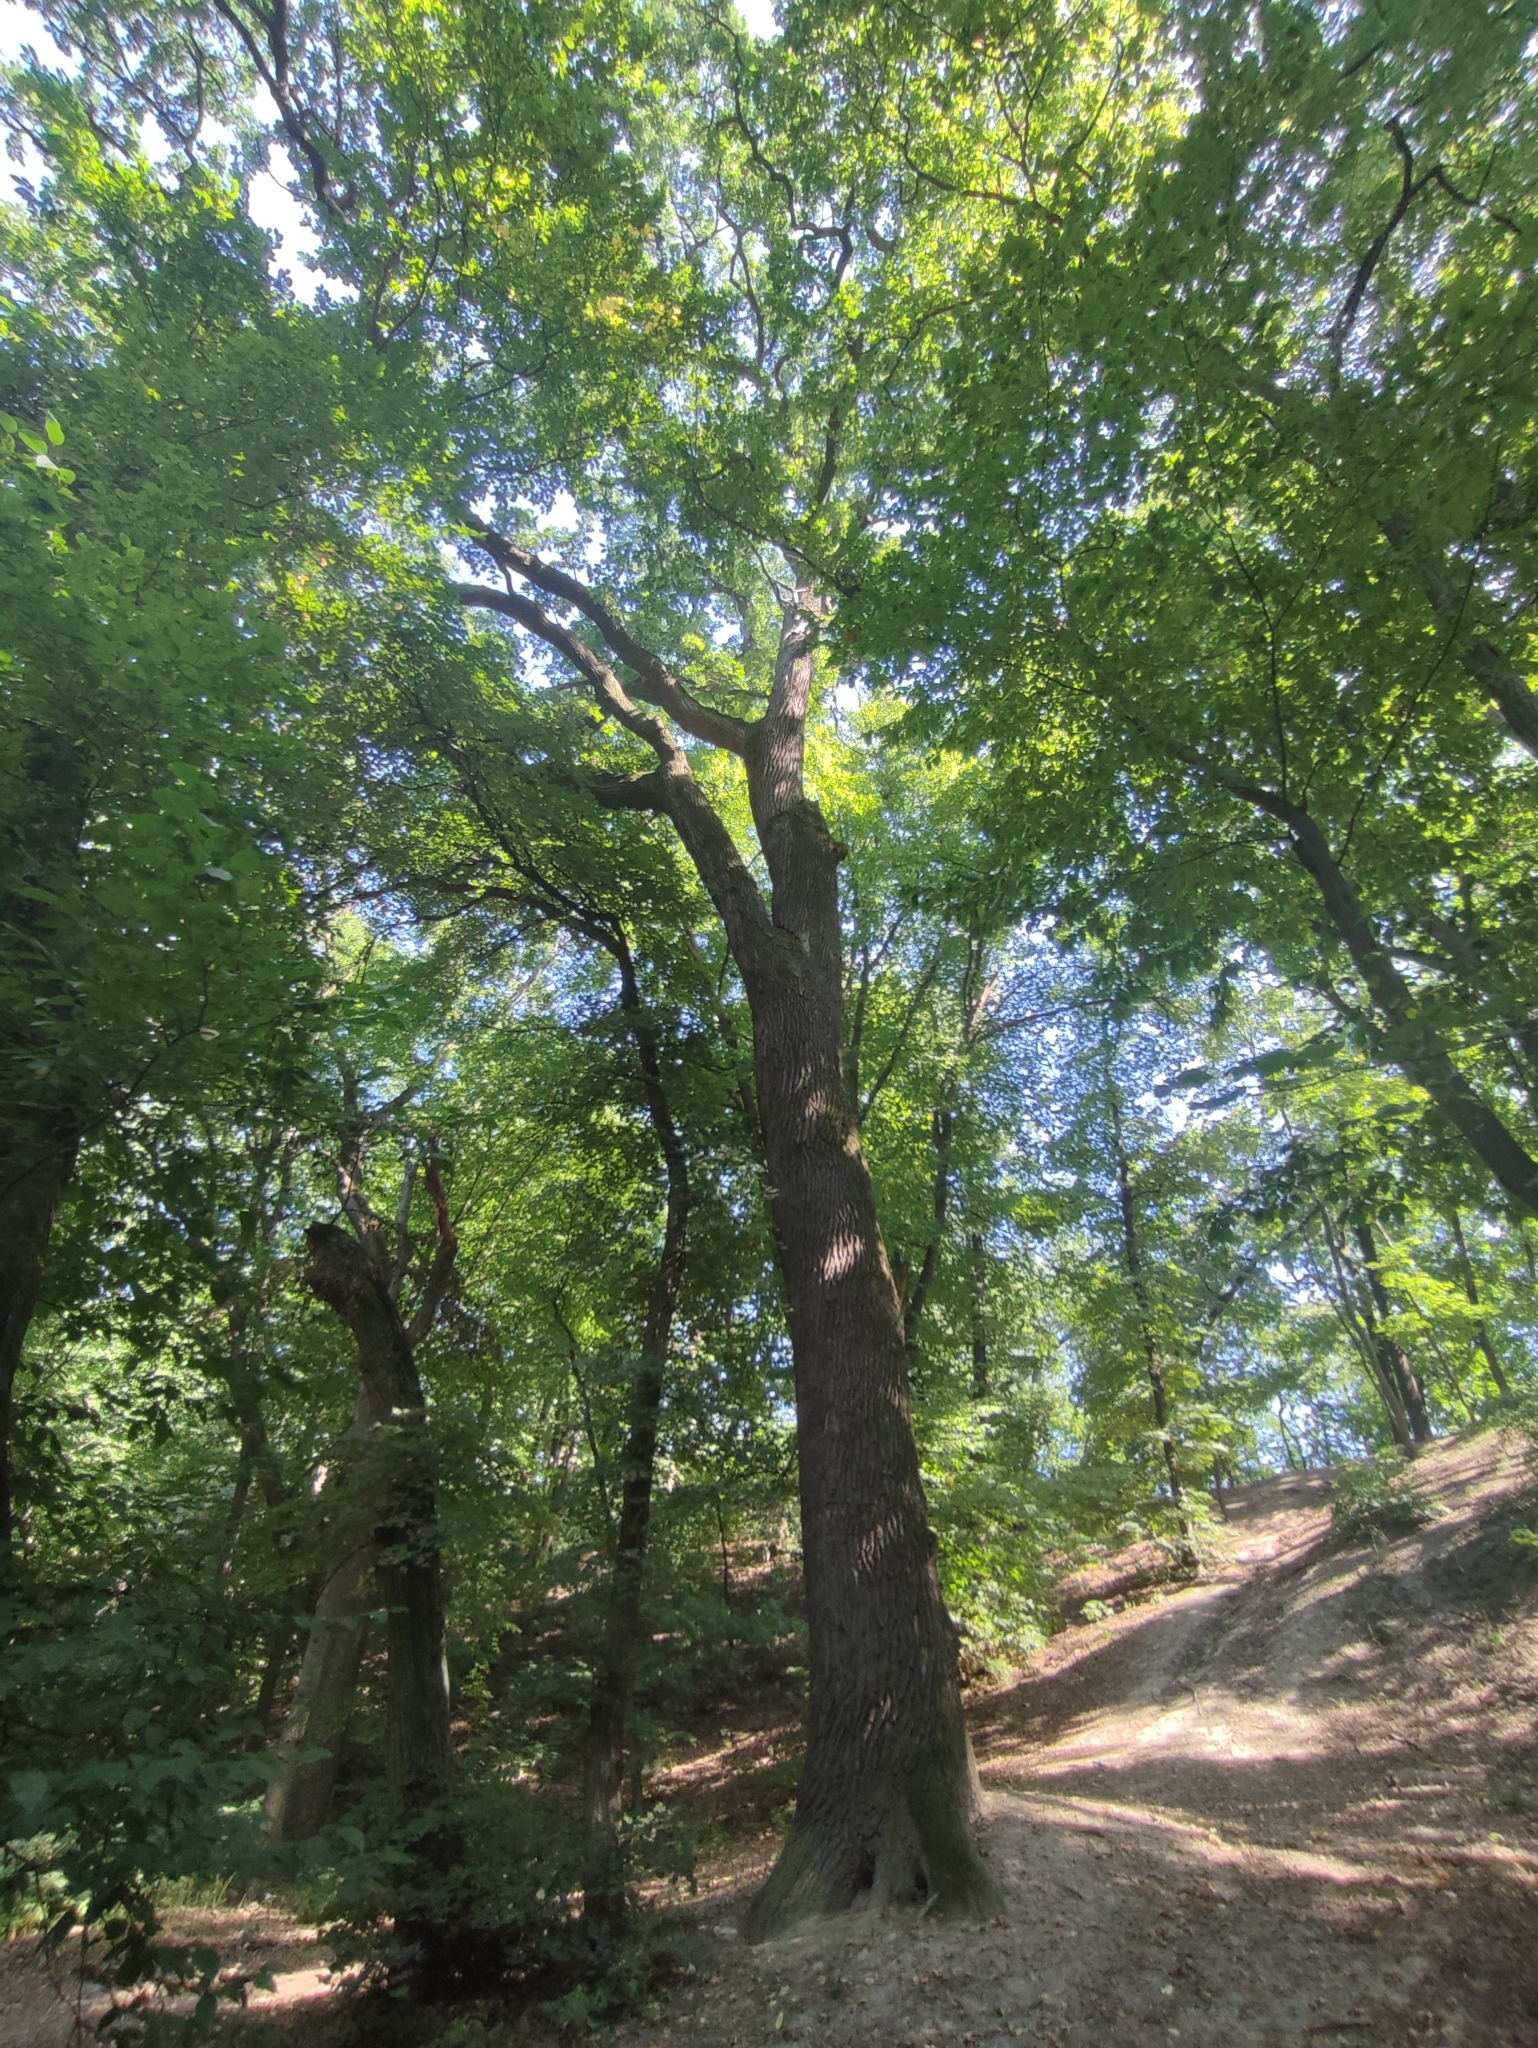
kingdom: Plantae
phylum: Tracheophyta
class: Magnoliopsida
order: Fagales
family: Fagaceae
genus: Quercus
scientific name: Quercus robur
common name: Pedunculate oak
